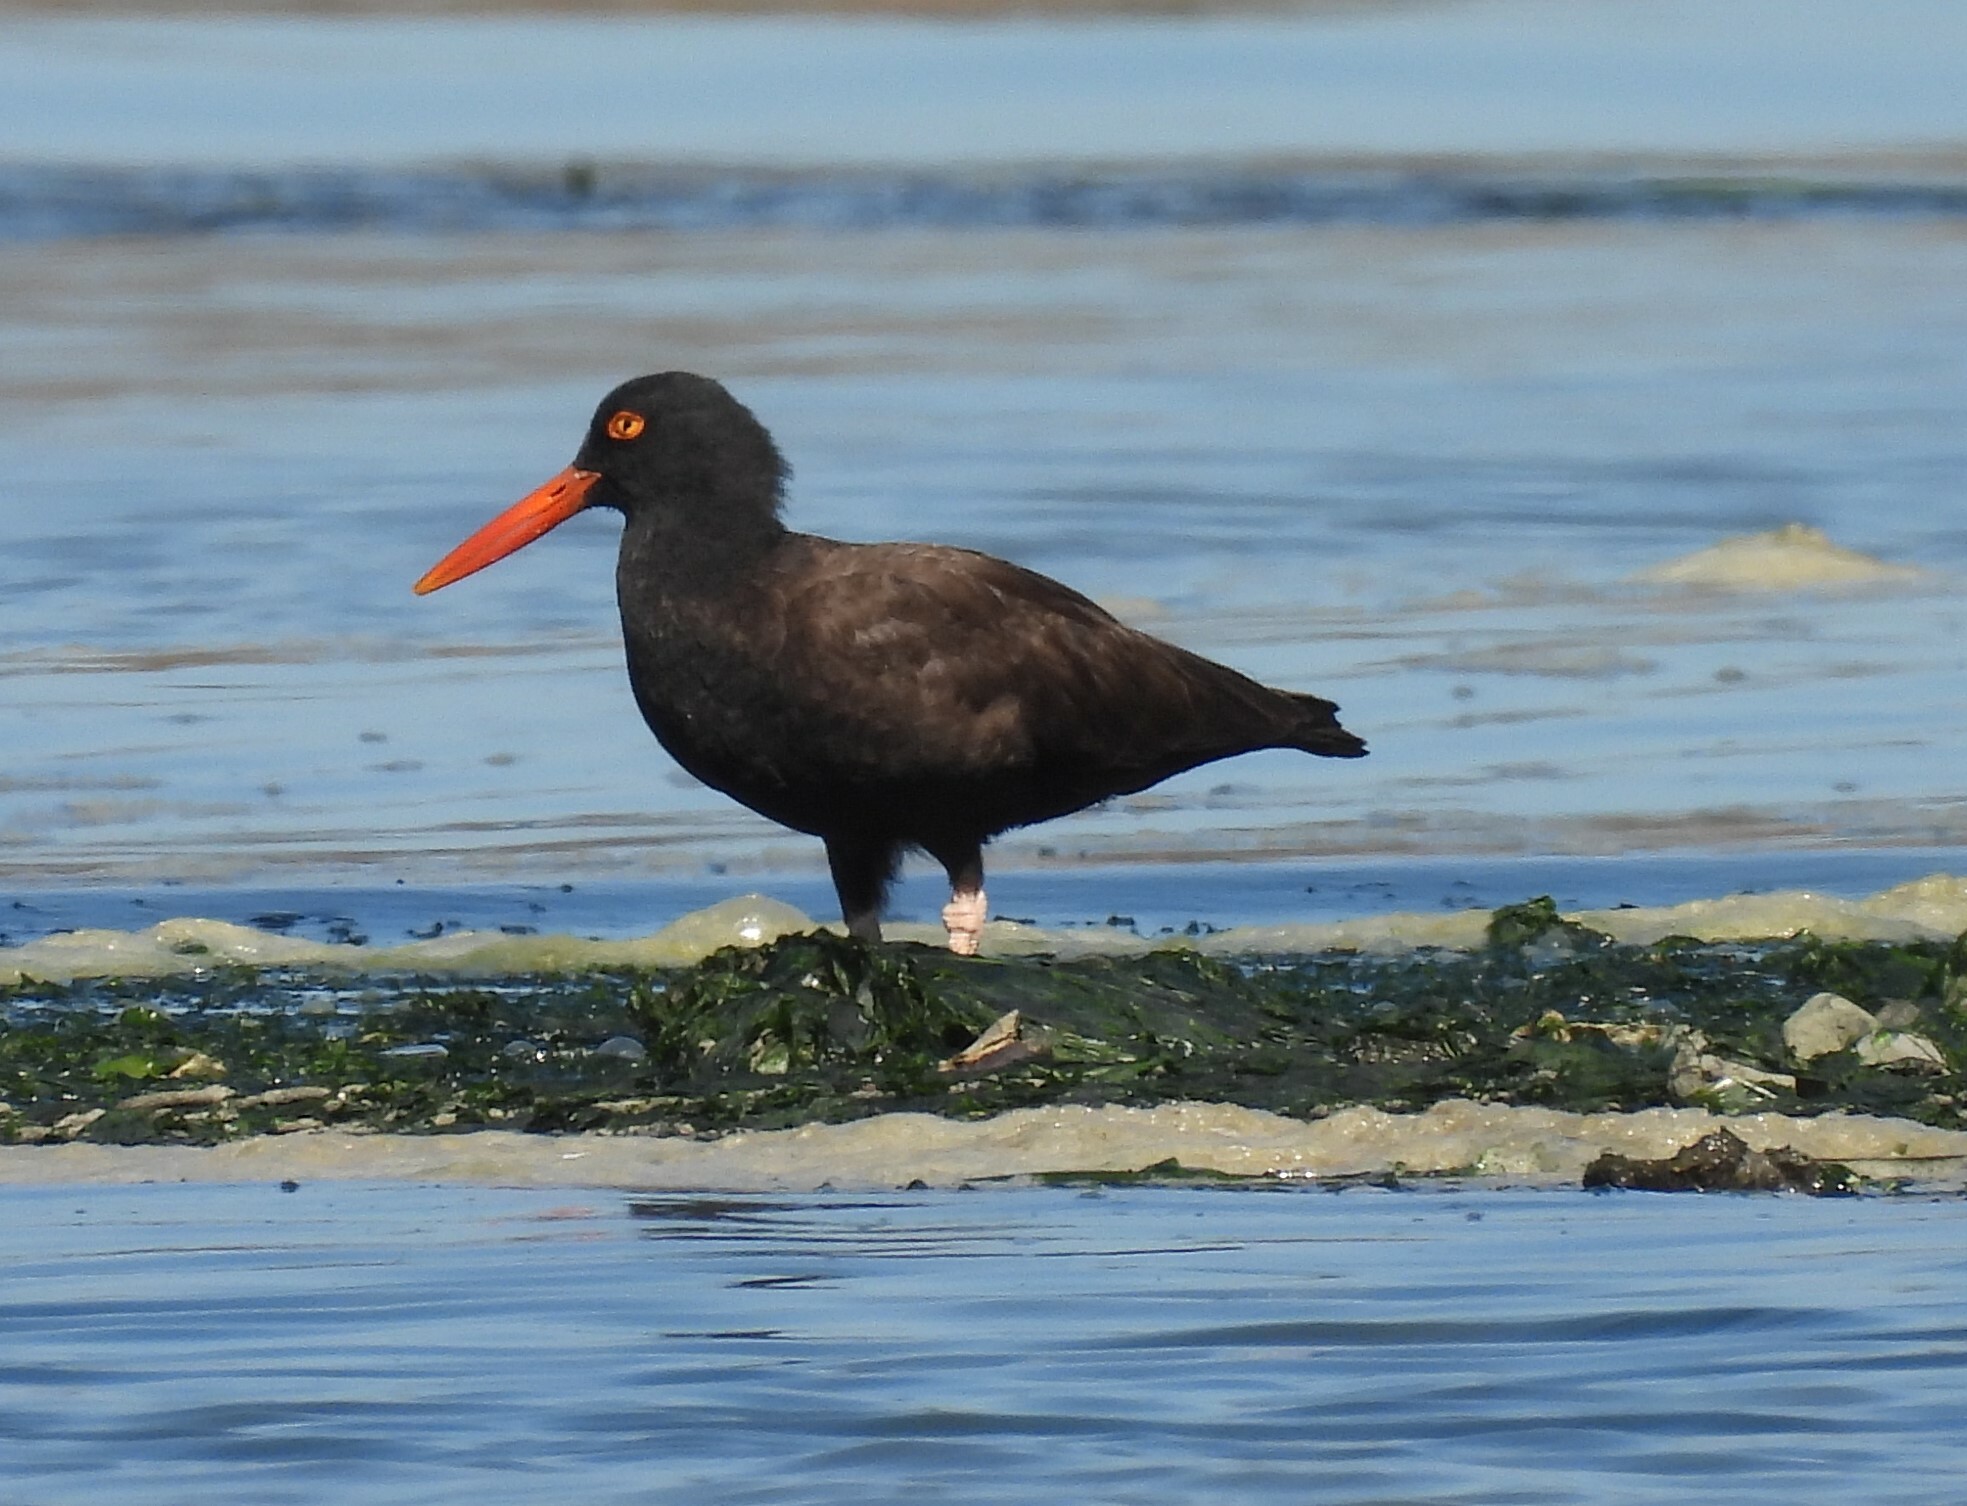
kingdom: Animalia
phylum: Chordata
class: Aves
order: Charadriiformes
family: Haematopodidae
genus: Haematopus
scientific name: Haematopus bachmani
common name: Black oystercatcher
